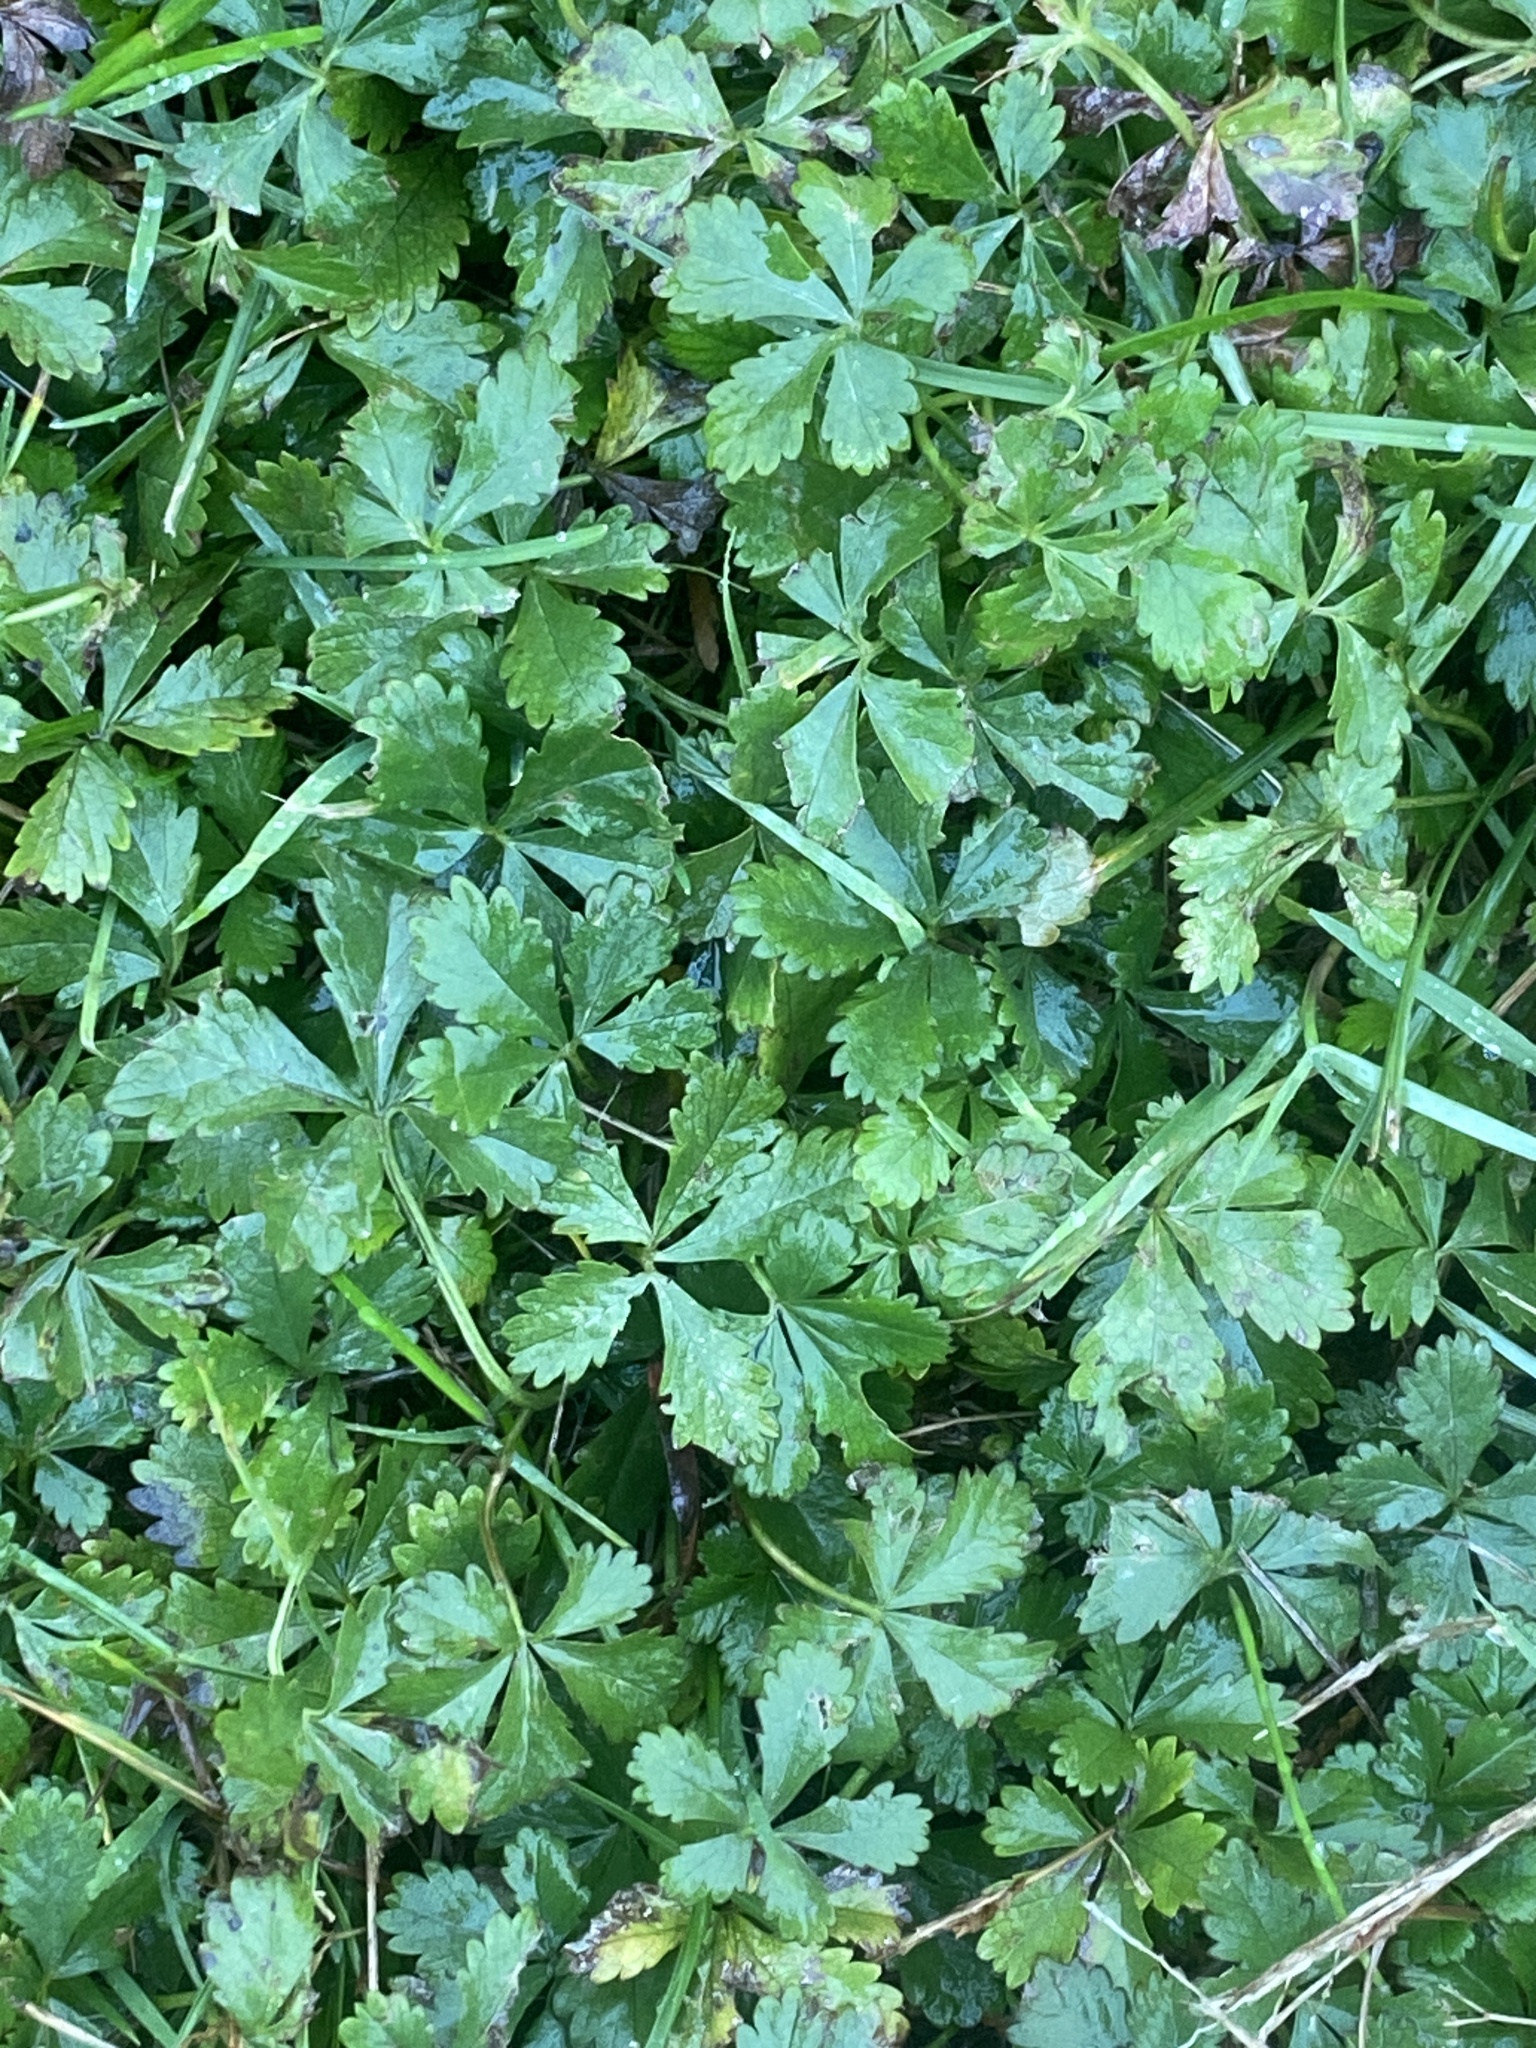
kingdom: Plantae
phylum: Tracheophyta
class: Magnoliopsida
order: Rosales
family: Rosaceae
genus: Potentilla
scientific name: Potentilla reptans
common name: Creeping cinquefoil
